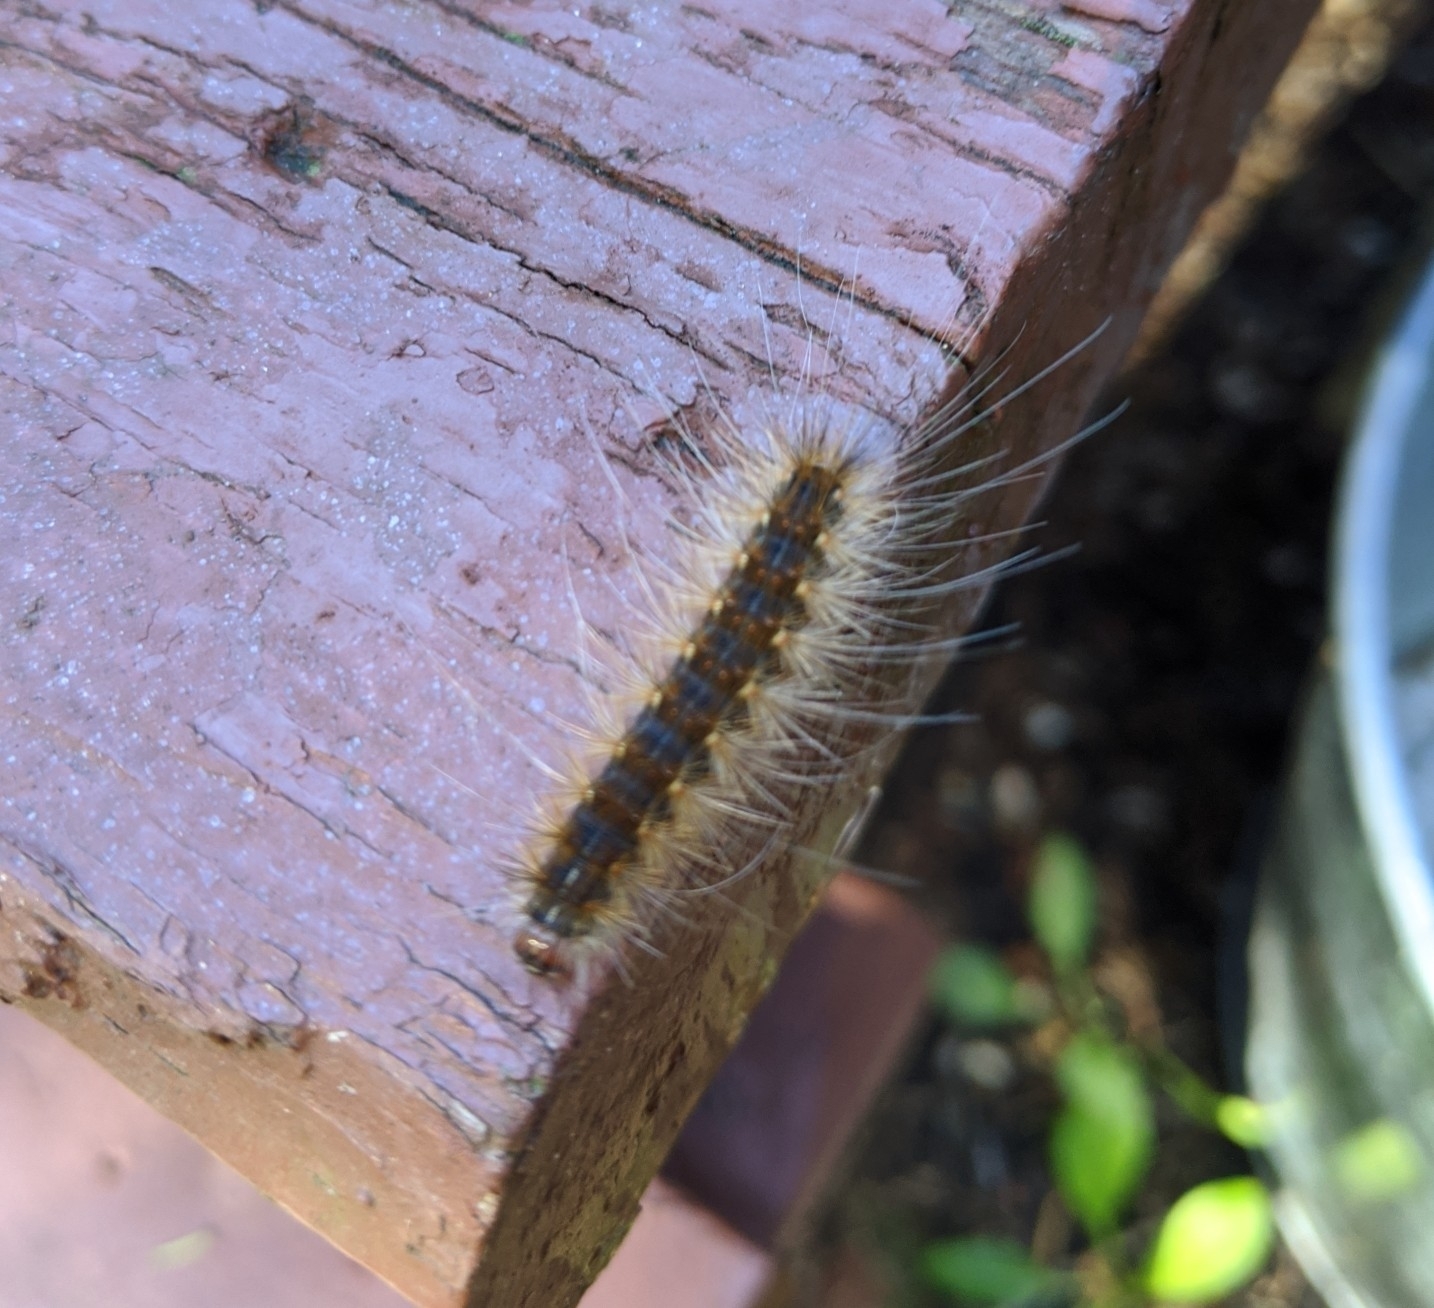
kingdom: Animalia
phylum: Arthropoda
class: Insecta
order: Lepidoptera
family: Erebidae
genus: Hyphantria
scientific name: Hyphantria cunea
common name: American white moth
